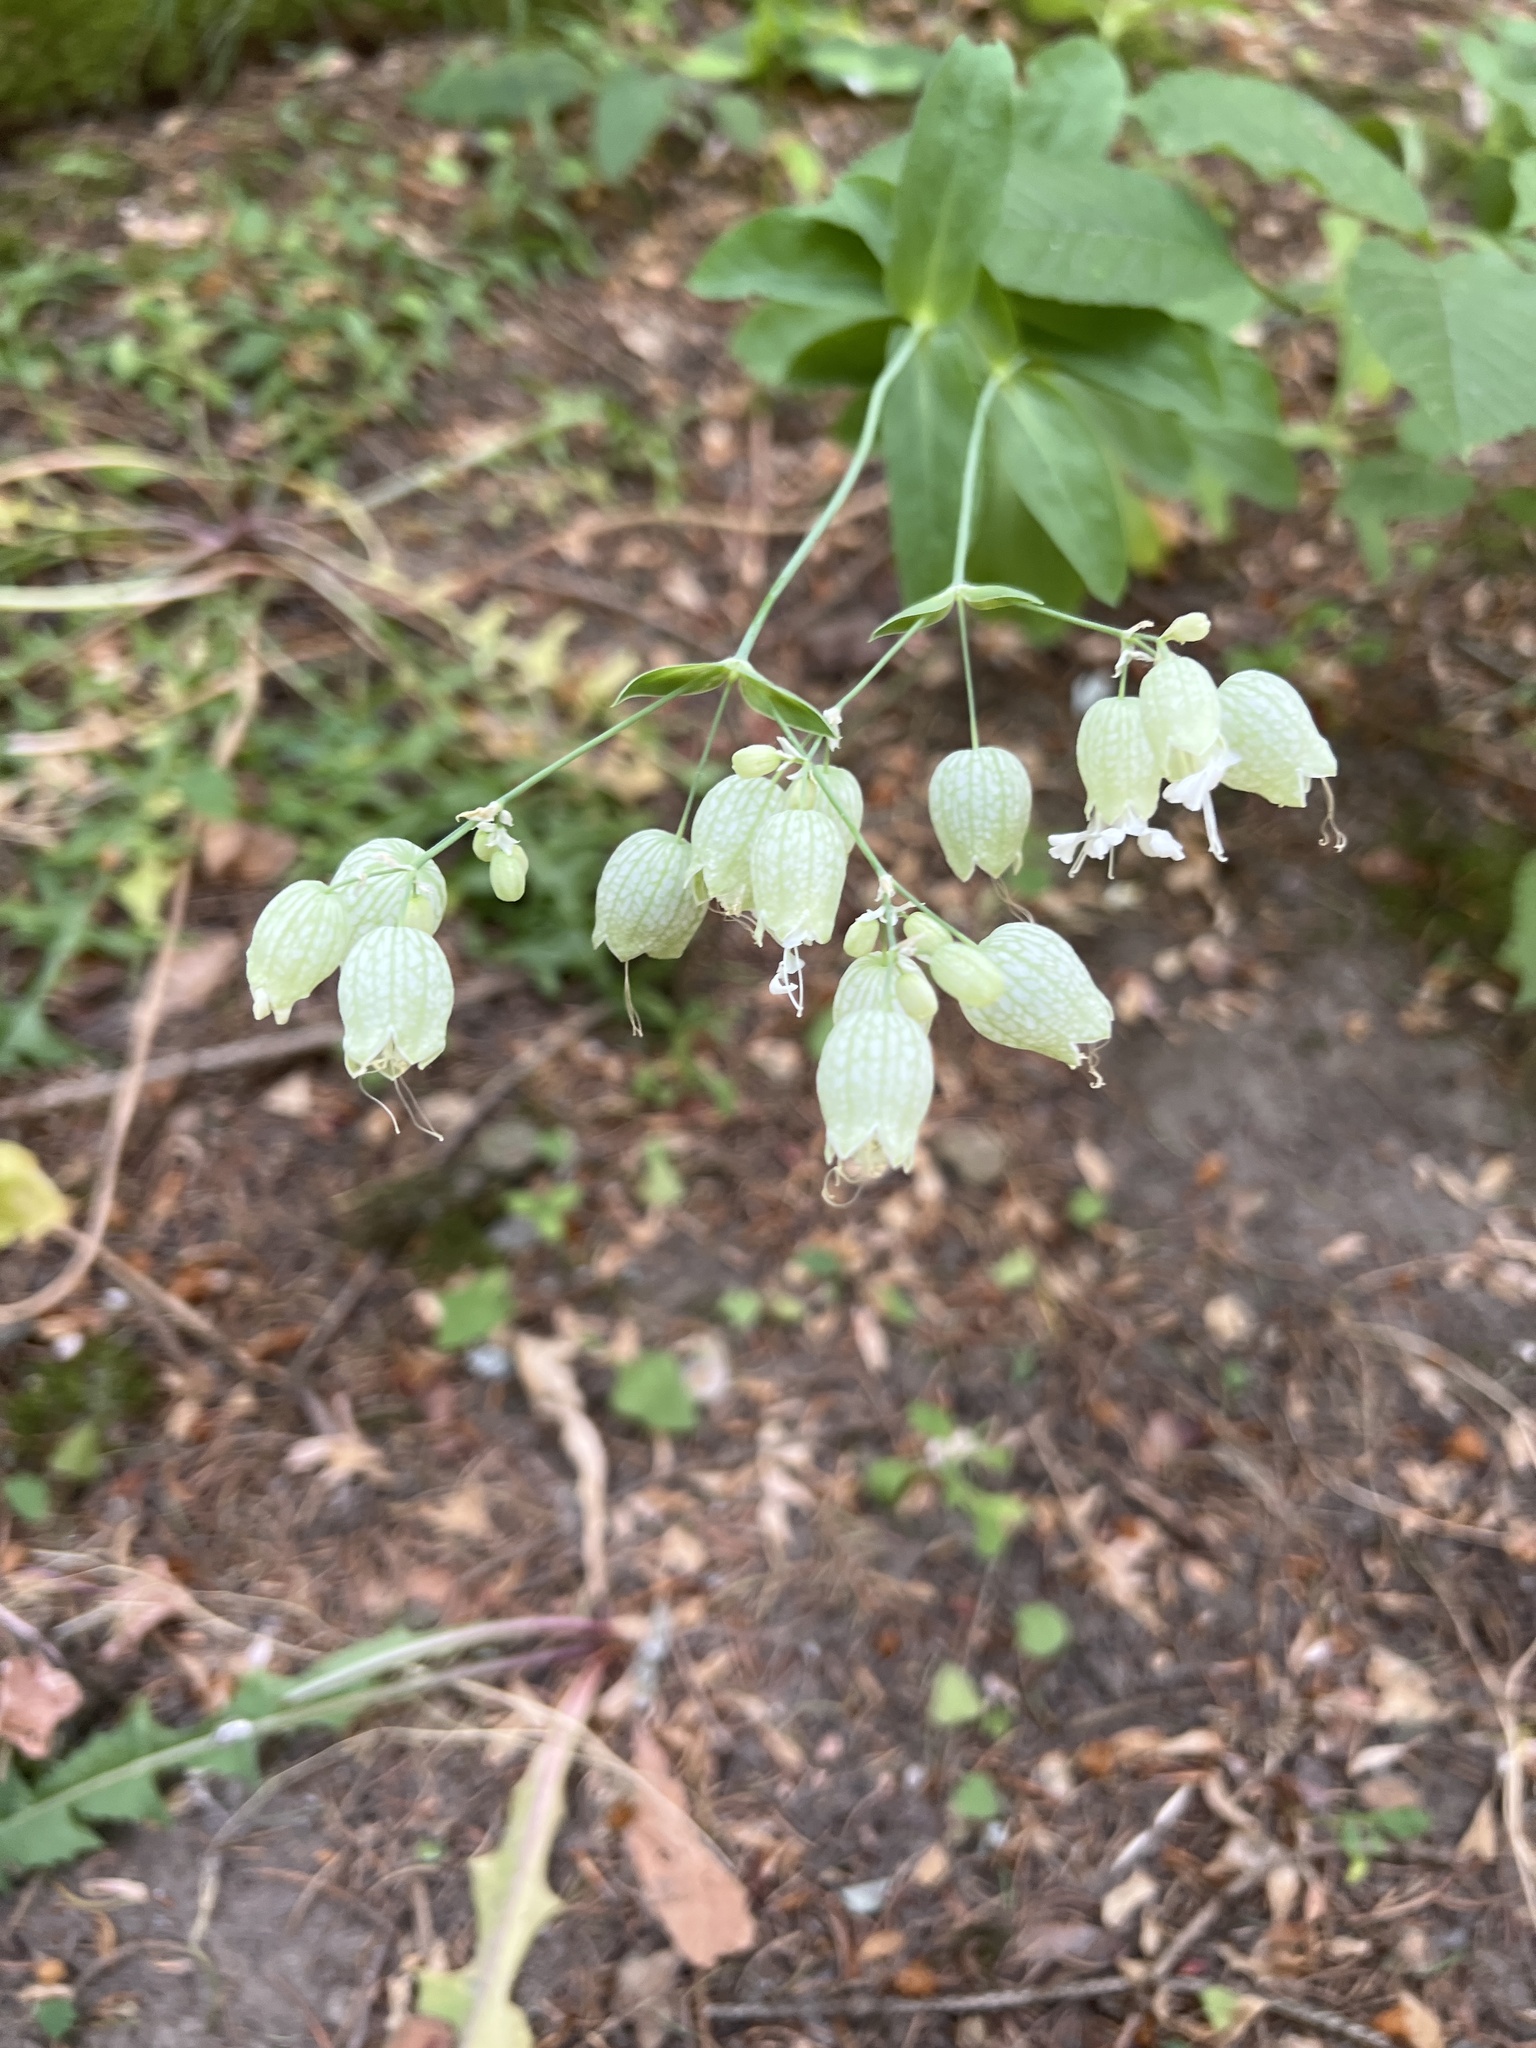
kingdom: Plantae
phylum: Tracheophyta
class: Magnoliopsida
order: Caryophyllales
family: Caryophyllaceae
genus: Silene
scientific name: Silene vulgaris
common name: Bladder campion
